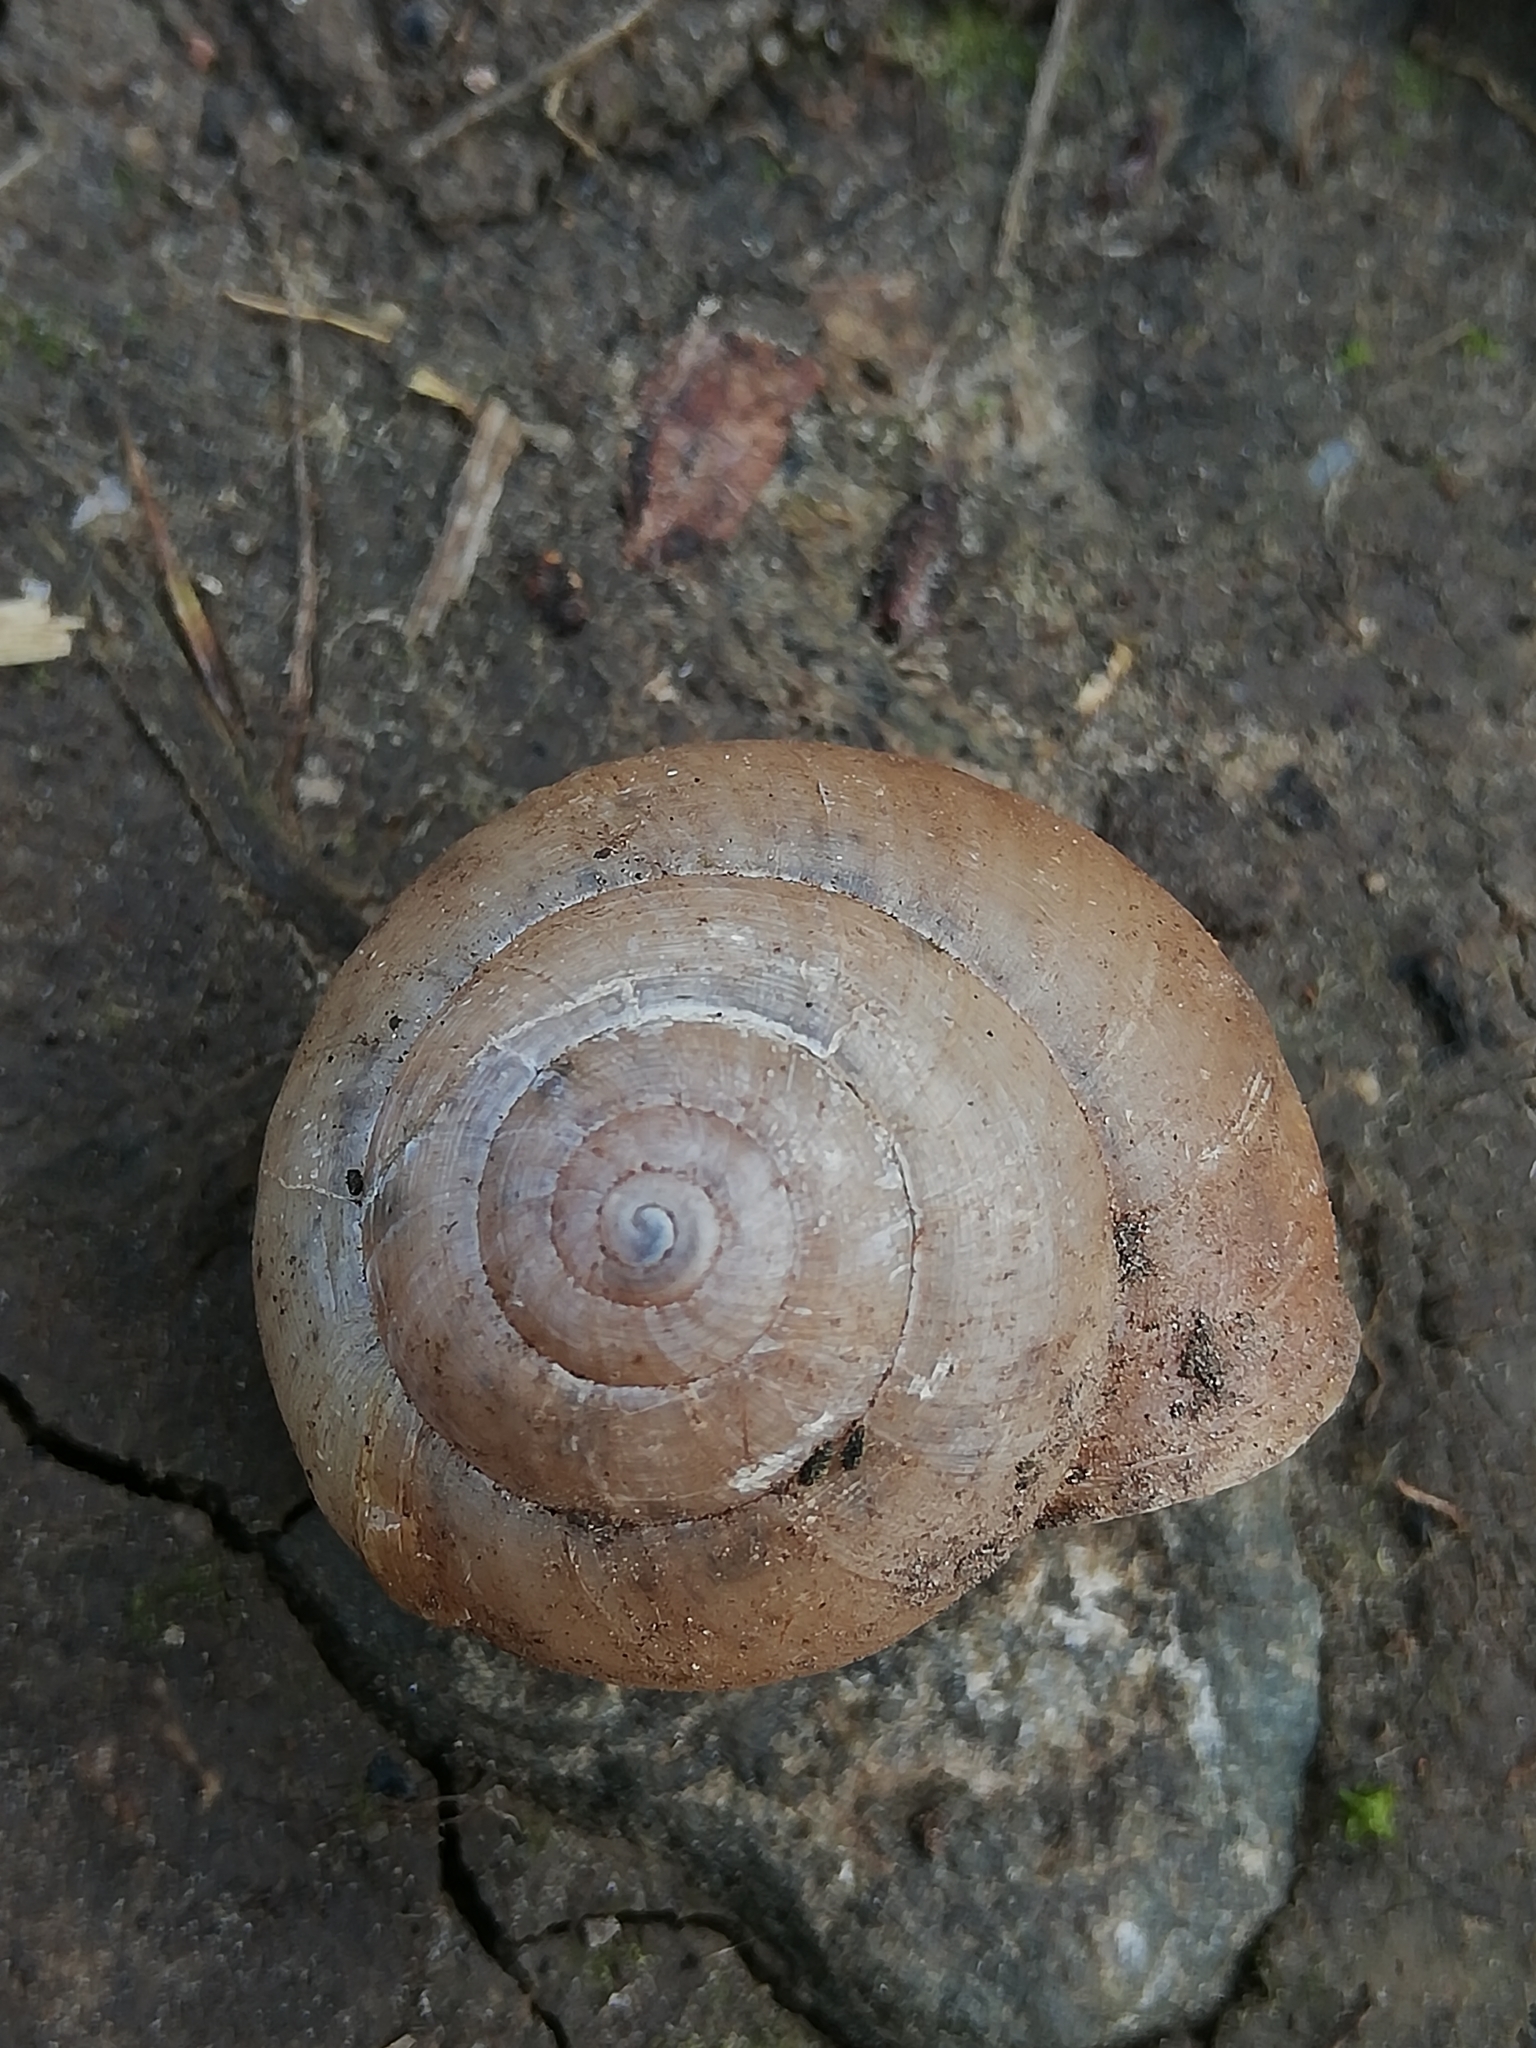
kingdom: Animalia
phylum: Mollusca
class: Gastropoda
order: Stylommatophora
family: Camaenidae
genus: Fruticicola
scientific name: Fruticicola fruticum
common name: Bush snail
